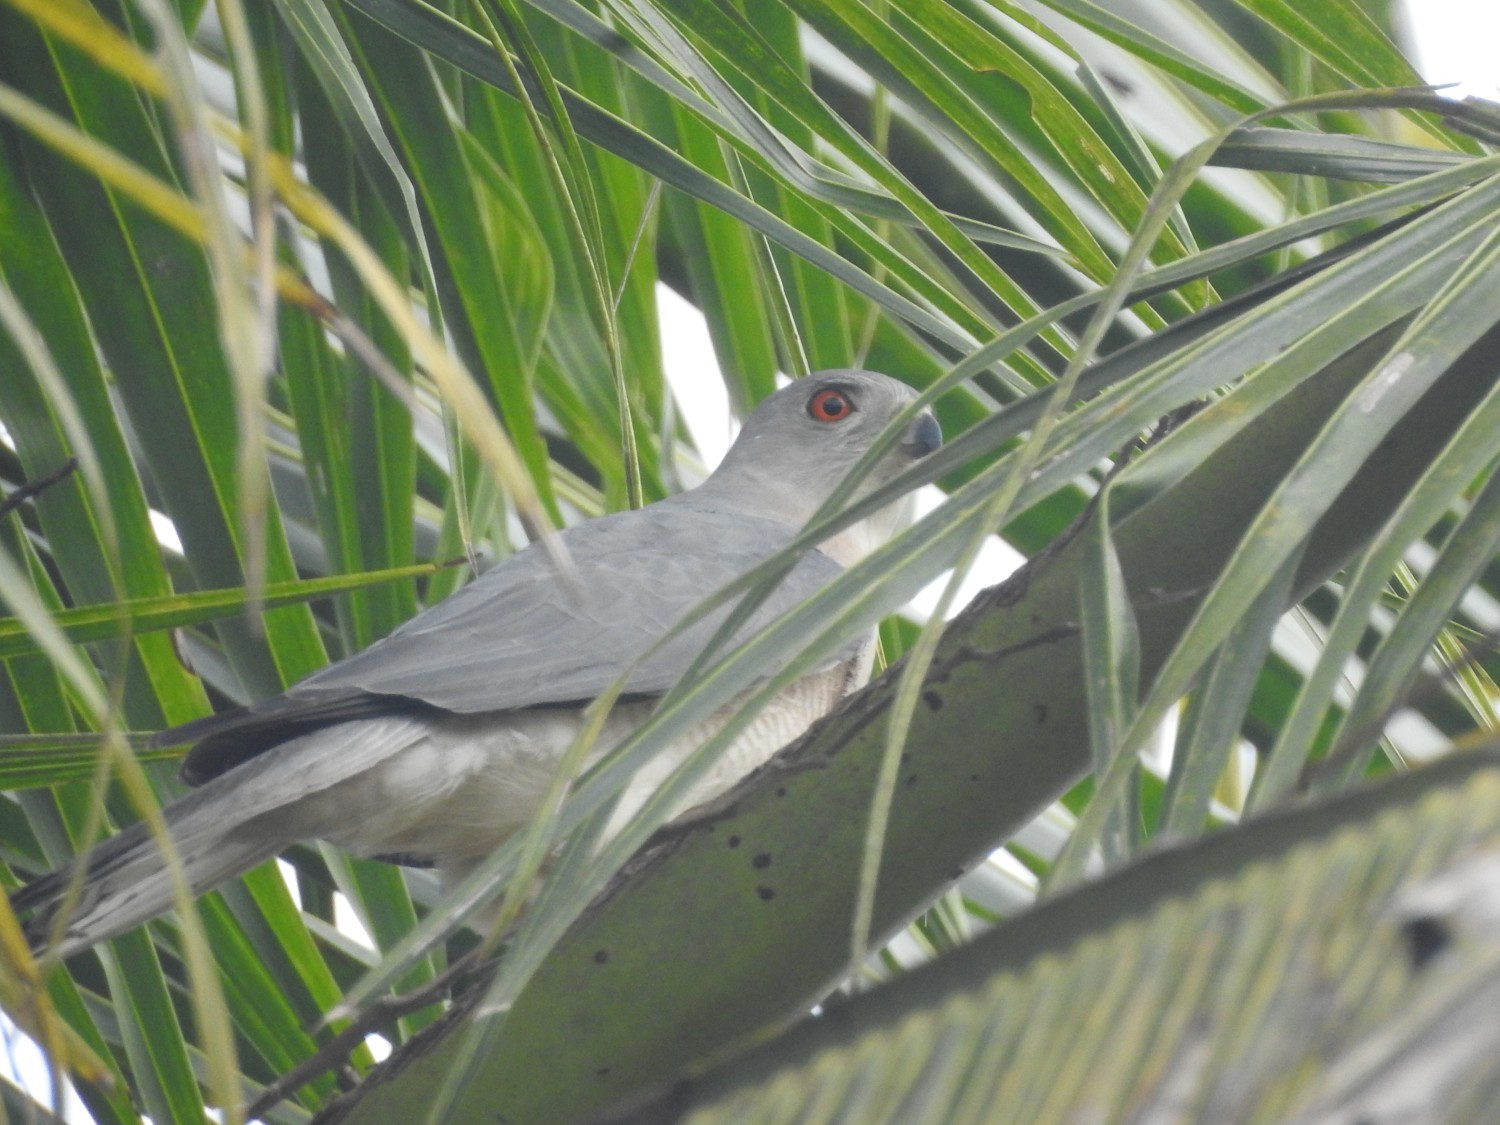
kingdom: Animalia
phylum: Chordata
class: Aves
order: Accipitriformes
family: Accipitridae
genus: Accipiter
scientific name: Accipiter badius
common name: Shikra
